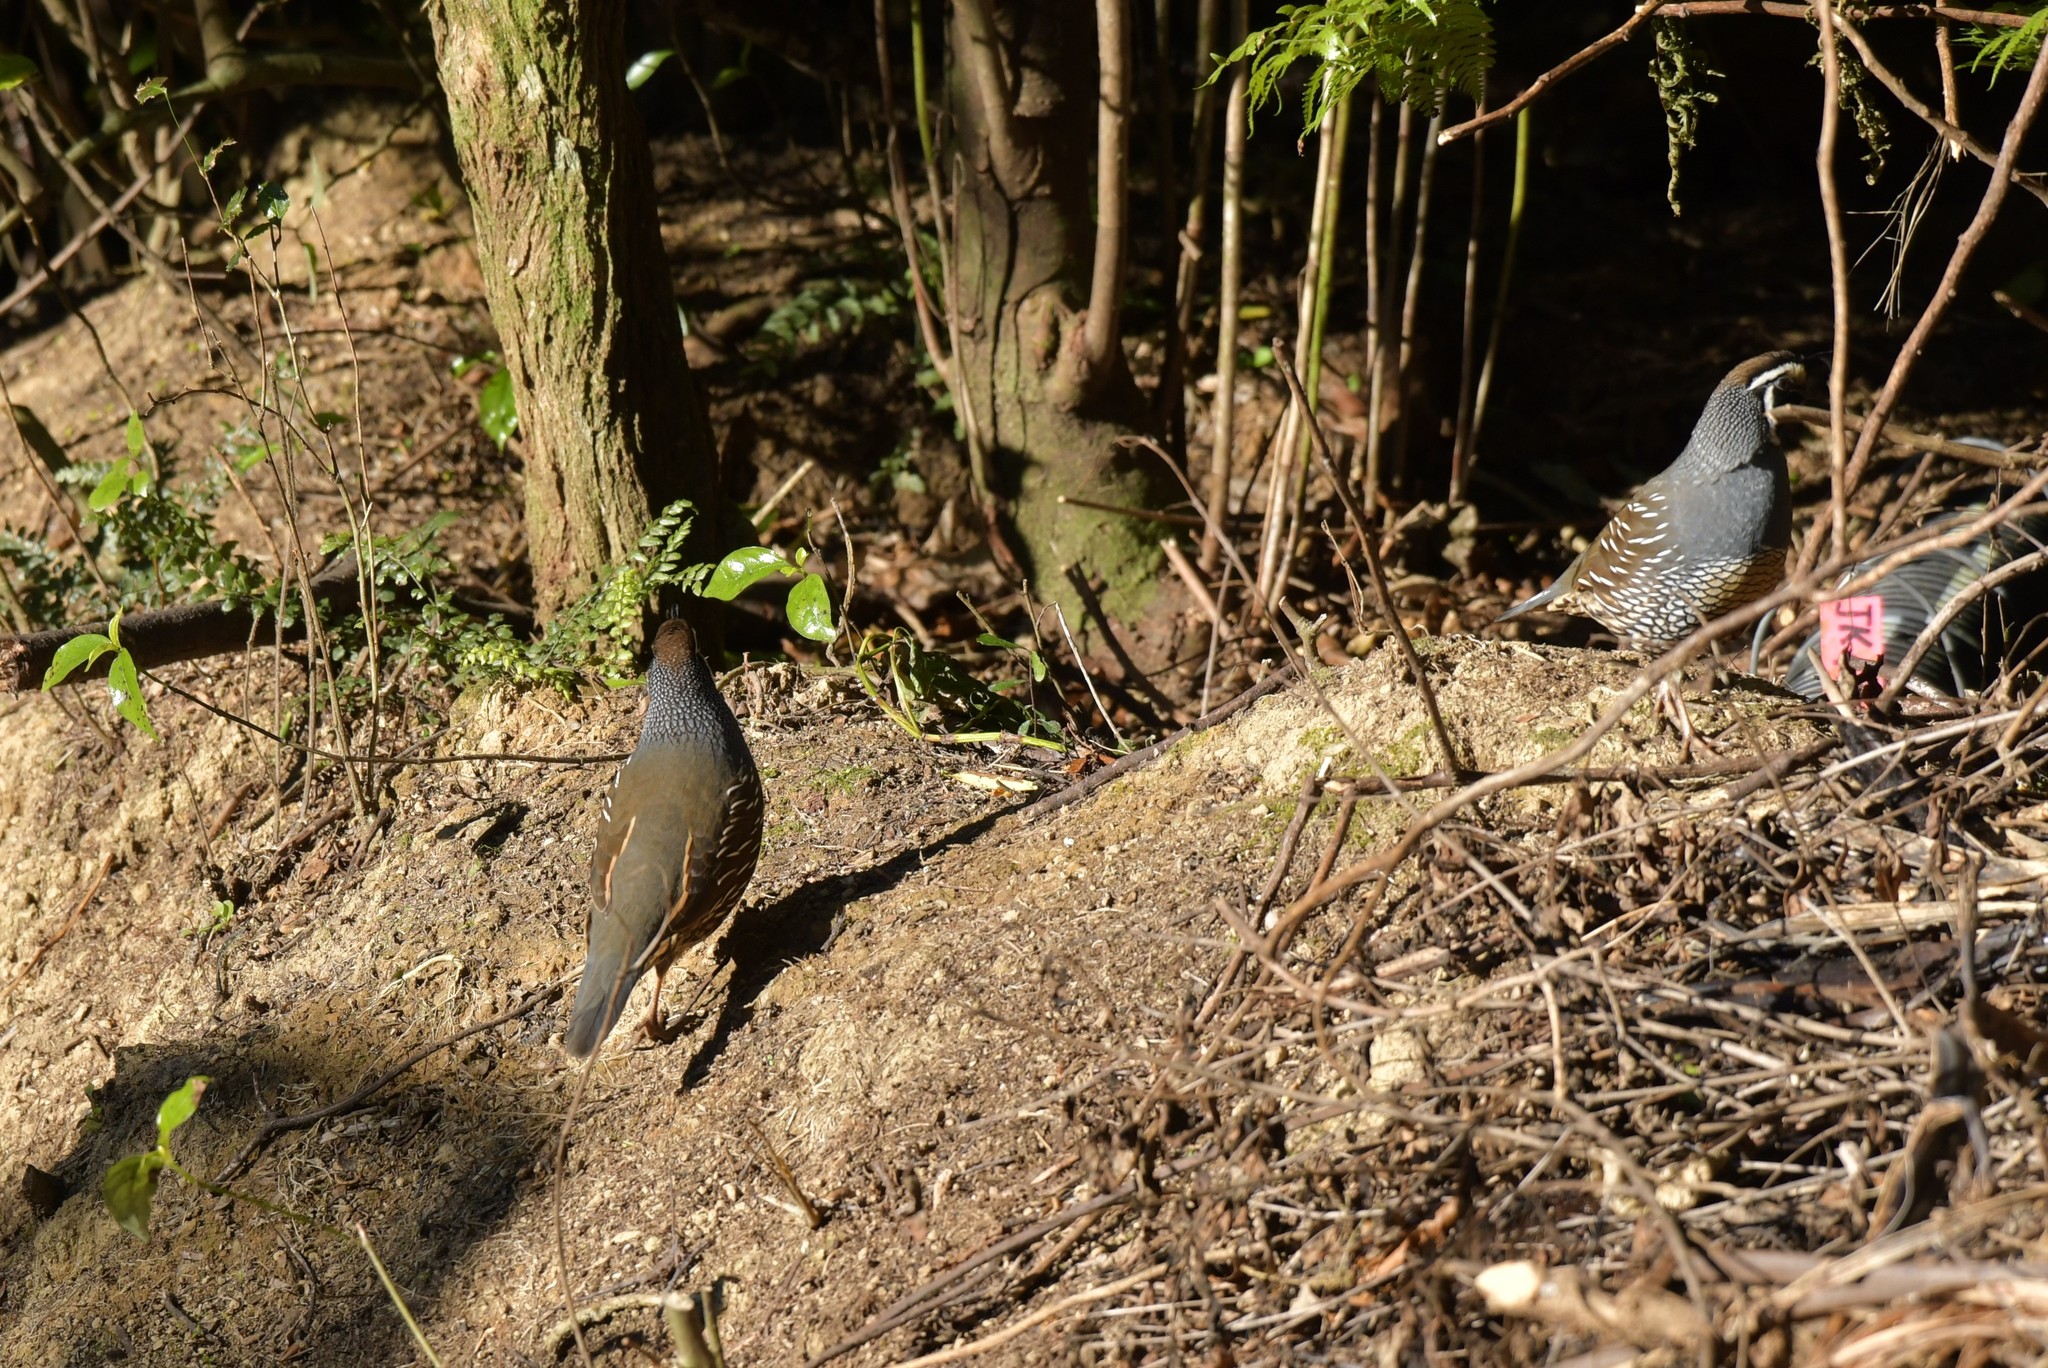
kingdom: Animalia
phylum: Chordata
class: Aves
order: Galliformes
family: Odontophoridae
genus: Callipepla
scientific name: Callipepla californica
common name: California quail
